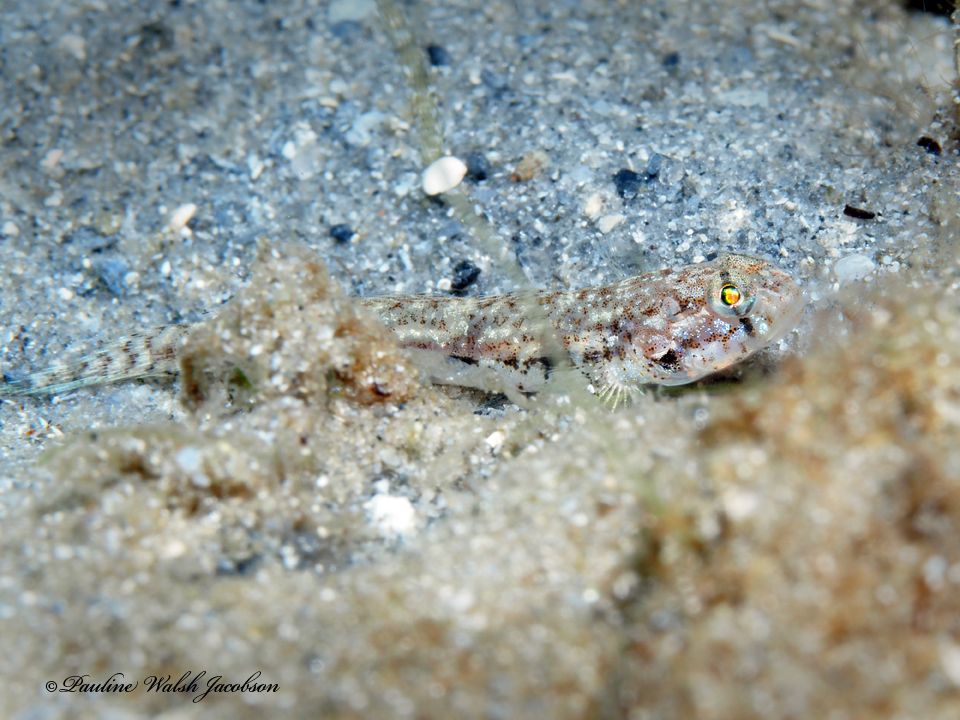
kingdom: Animalia
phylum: Chordata
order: Perciformes
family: Gobiidae
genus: Ctenogobius
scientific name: Ctenogobius saepepallens
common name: Dash goby
